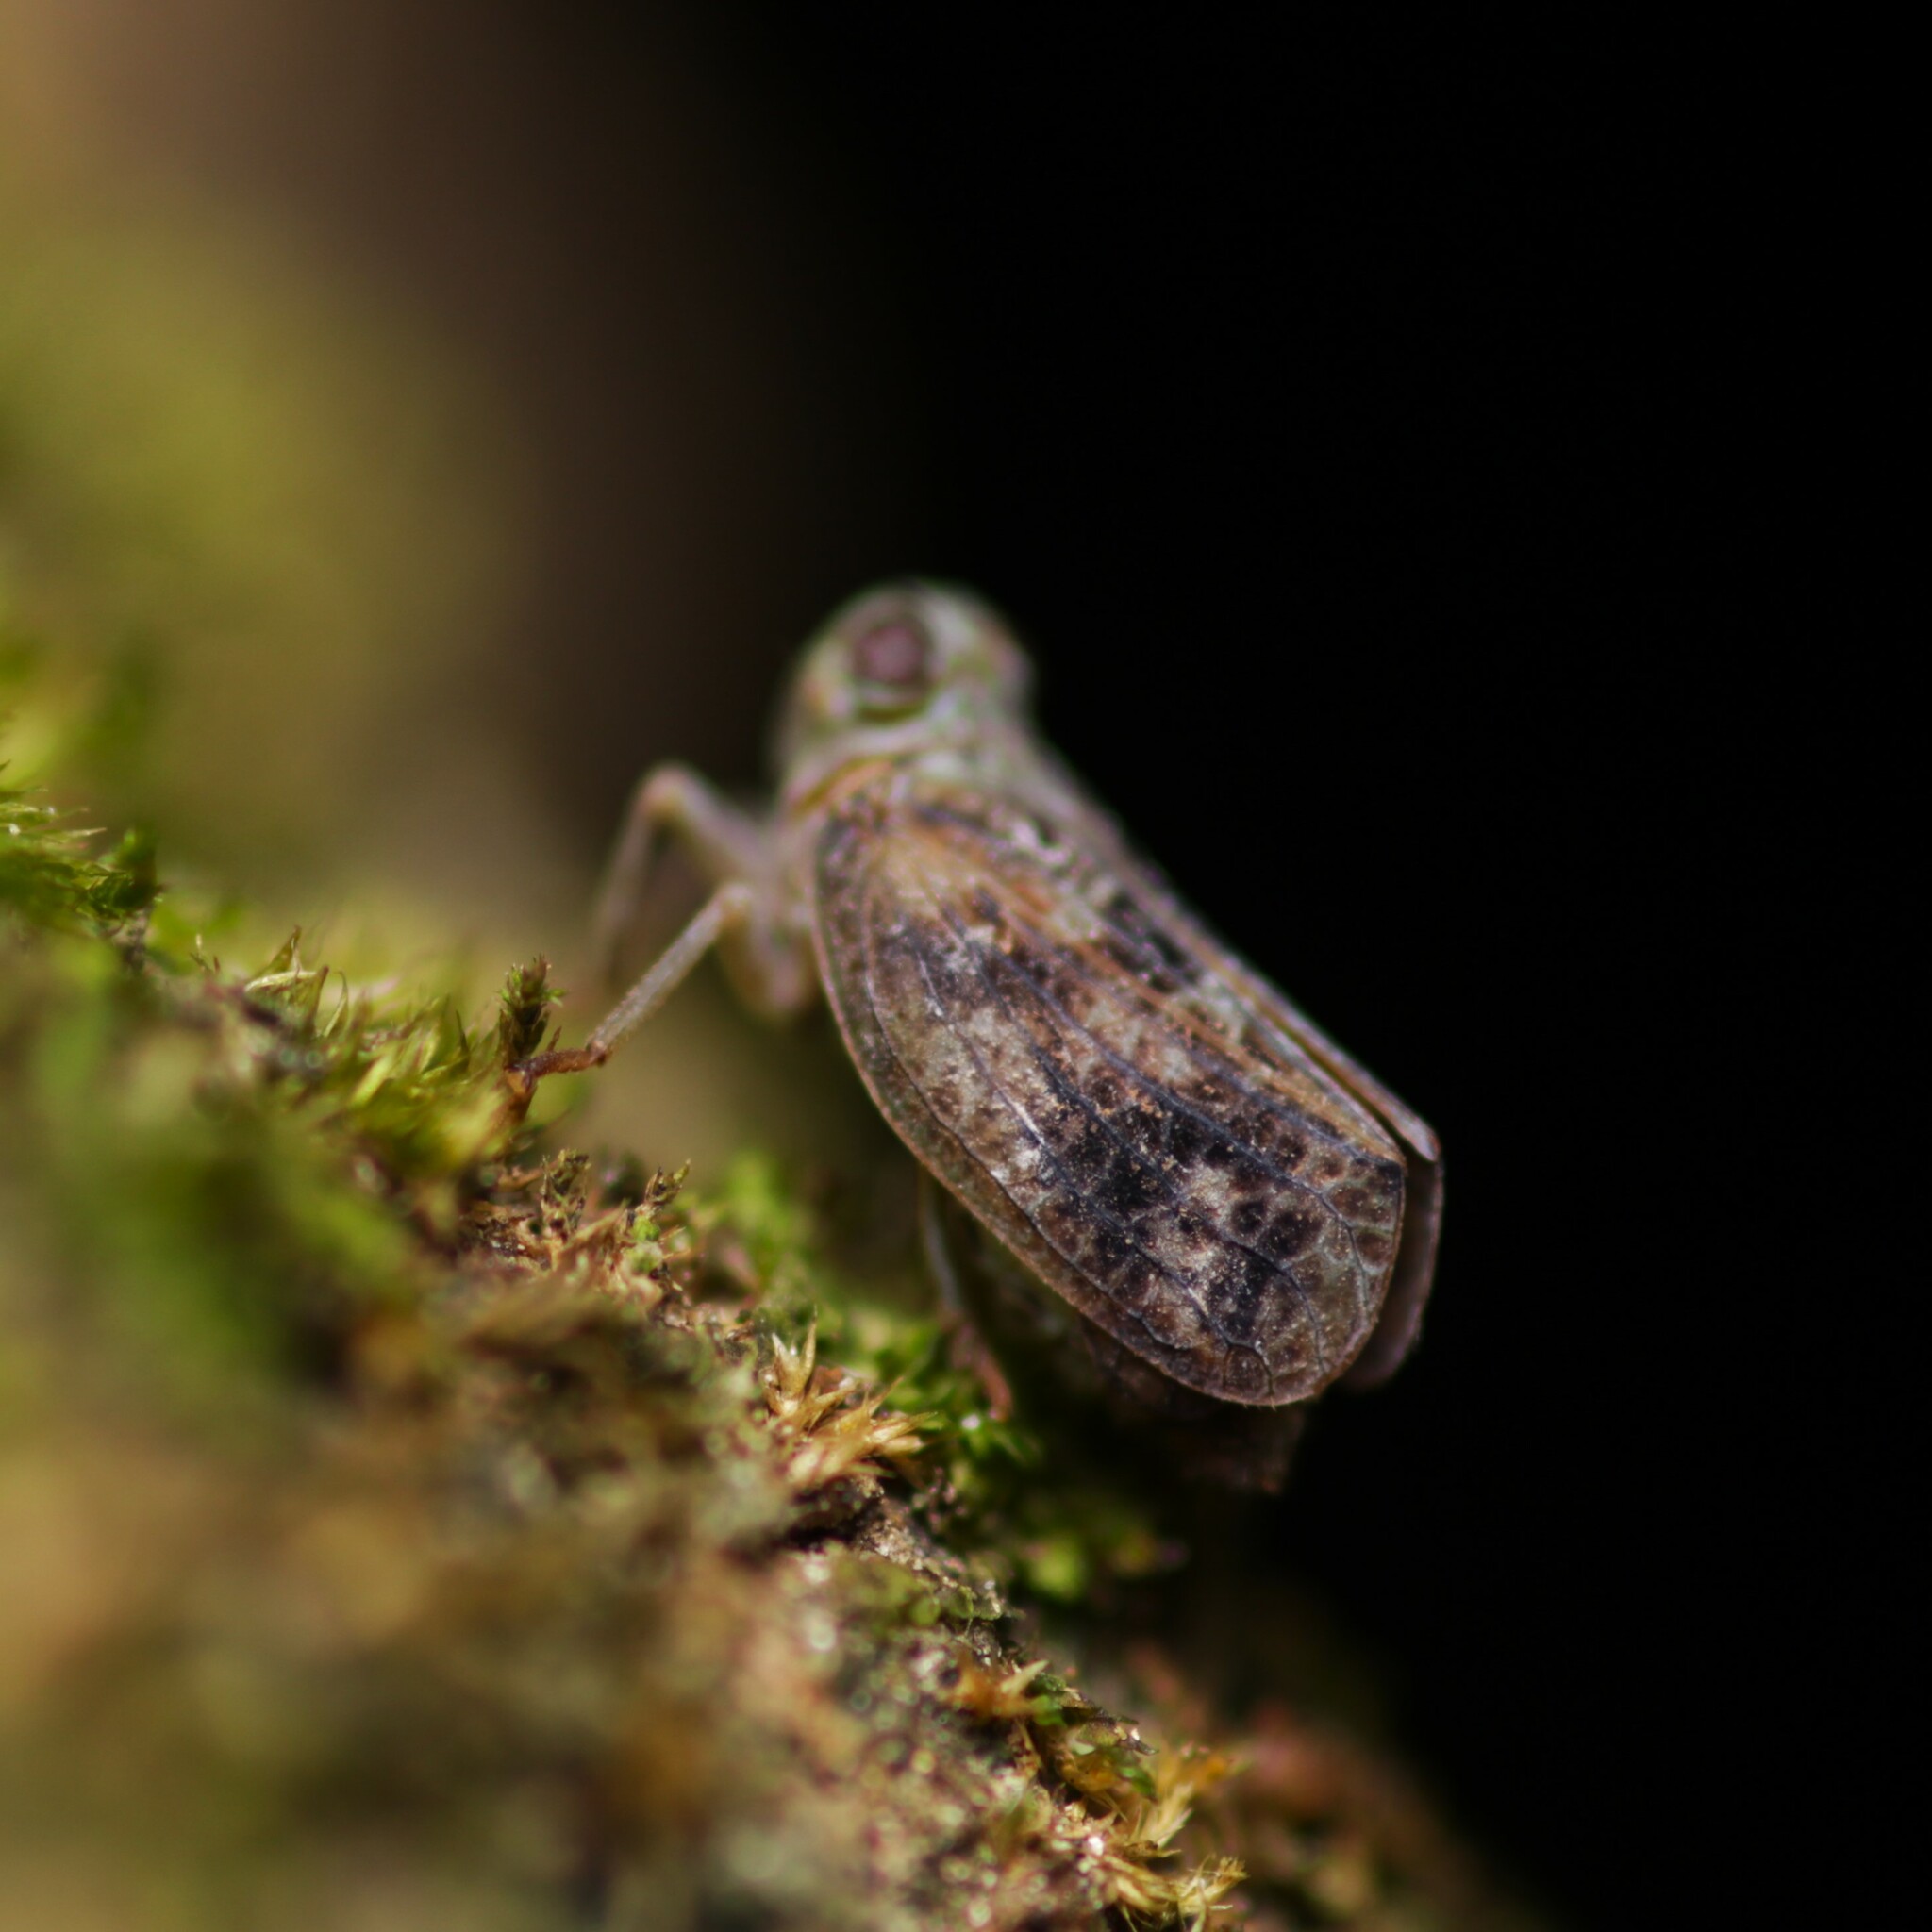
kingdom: Animalia
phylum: Arthropoda
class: Insecta
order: Hemiptera
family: Issidae
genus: Thionia
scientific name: Thionia bullata
